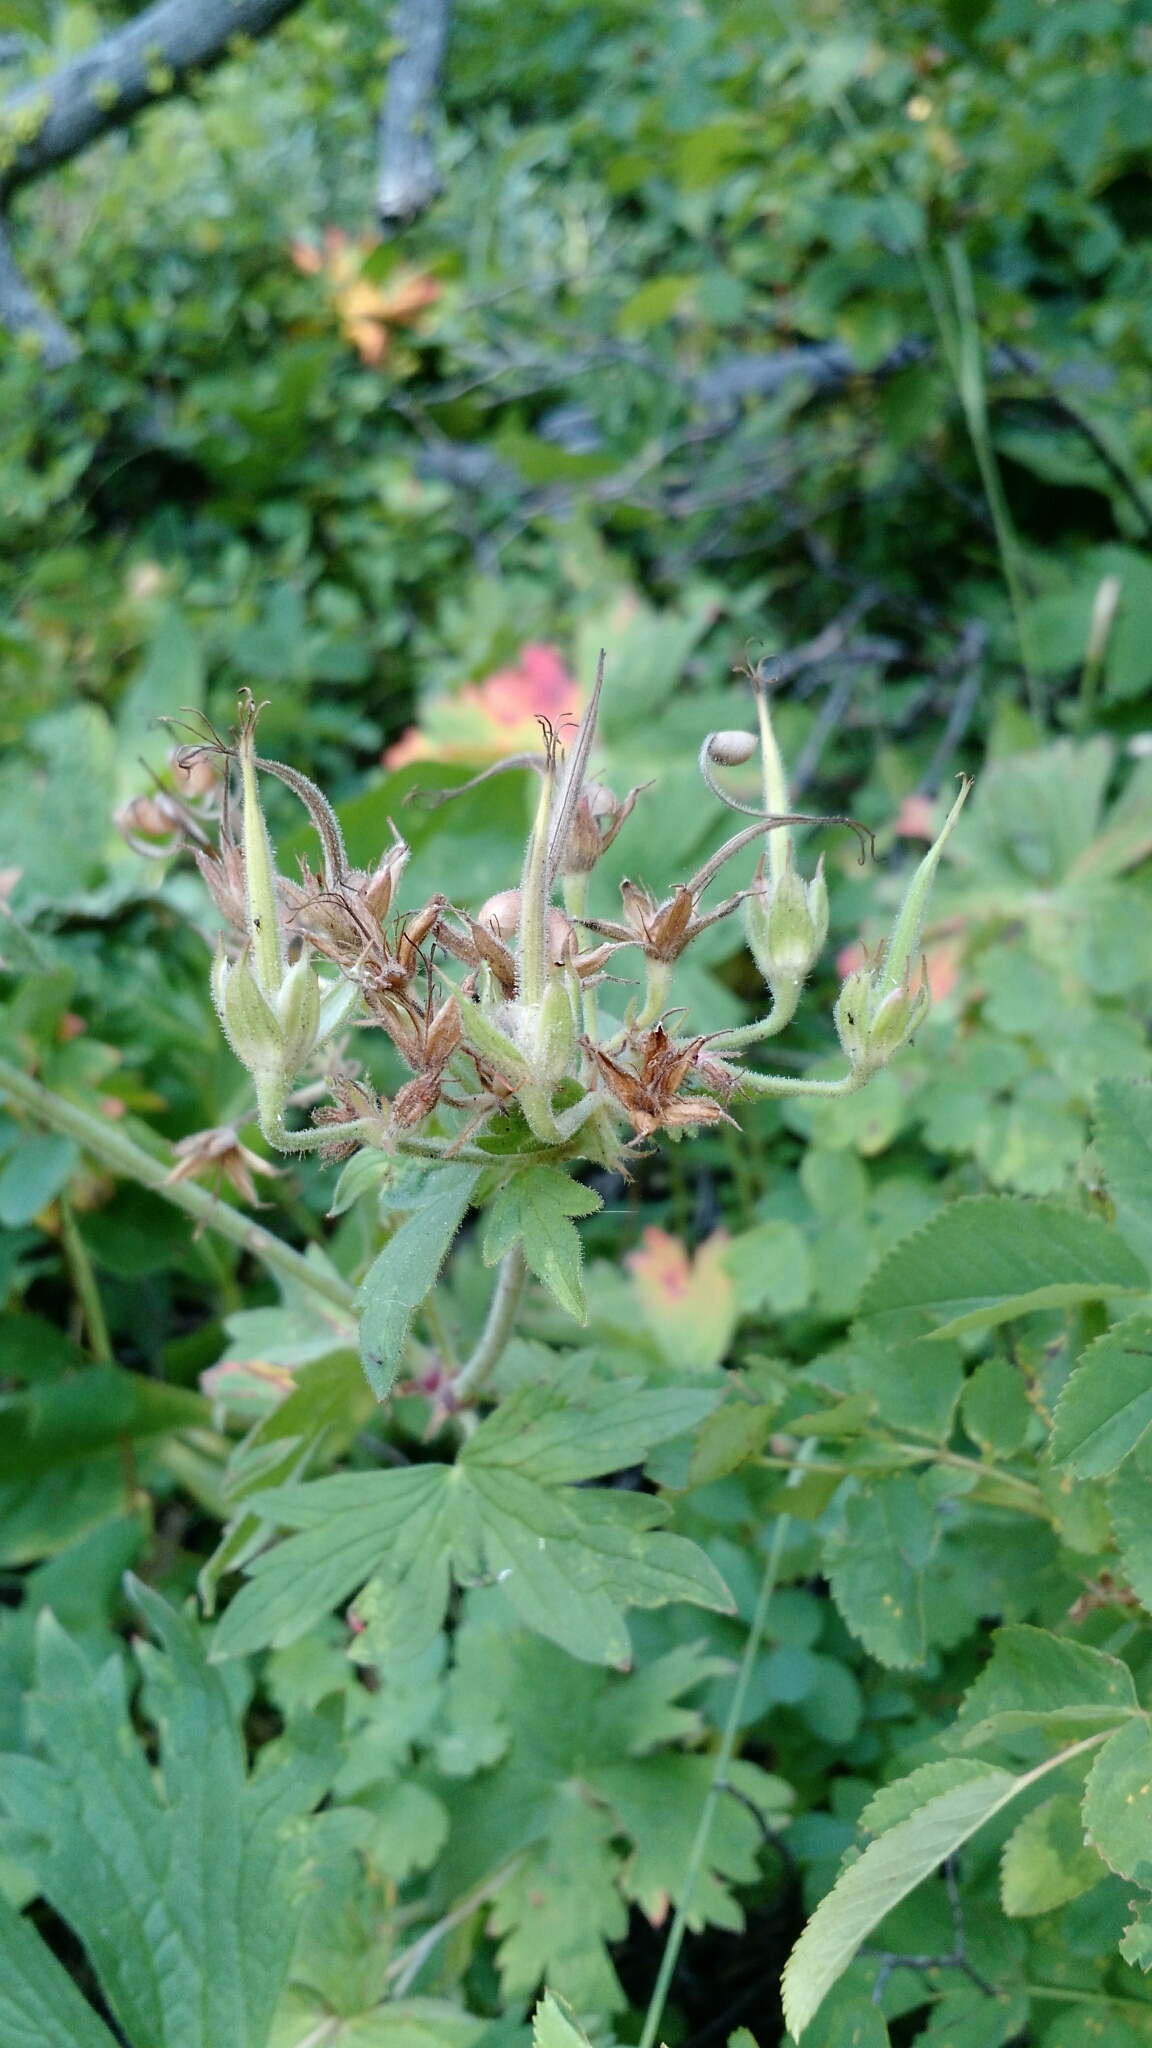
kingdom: Plantae
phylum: Tracheophyta
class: Magnoliopsida
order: Geraniales
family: Geraniaceae
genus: Geranium
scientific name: Geranium viscosissimum
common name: Purple geranium
